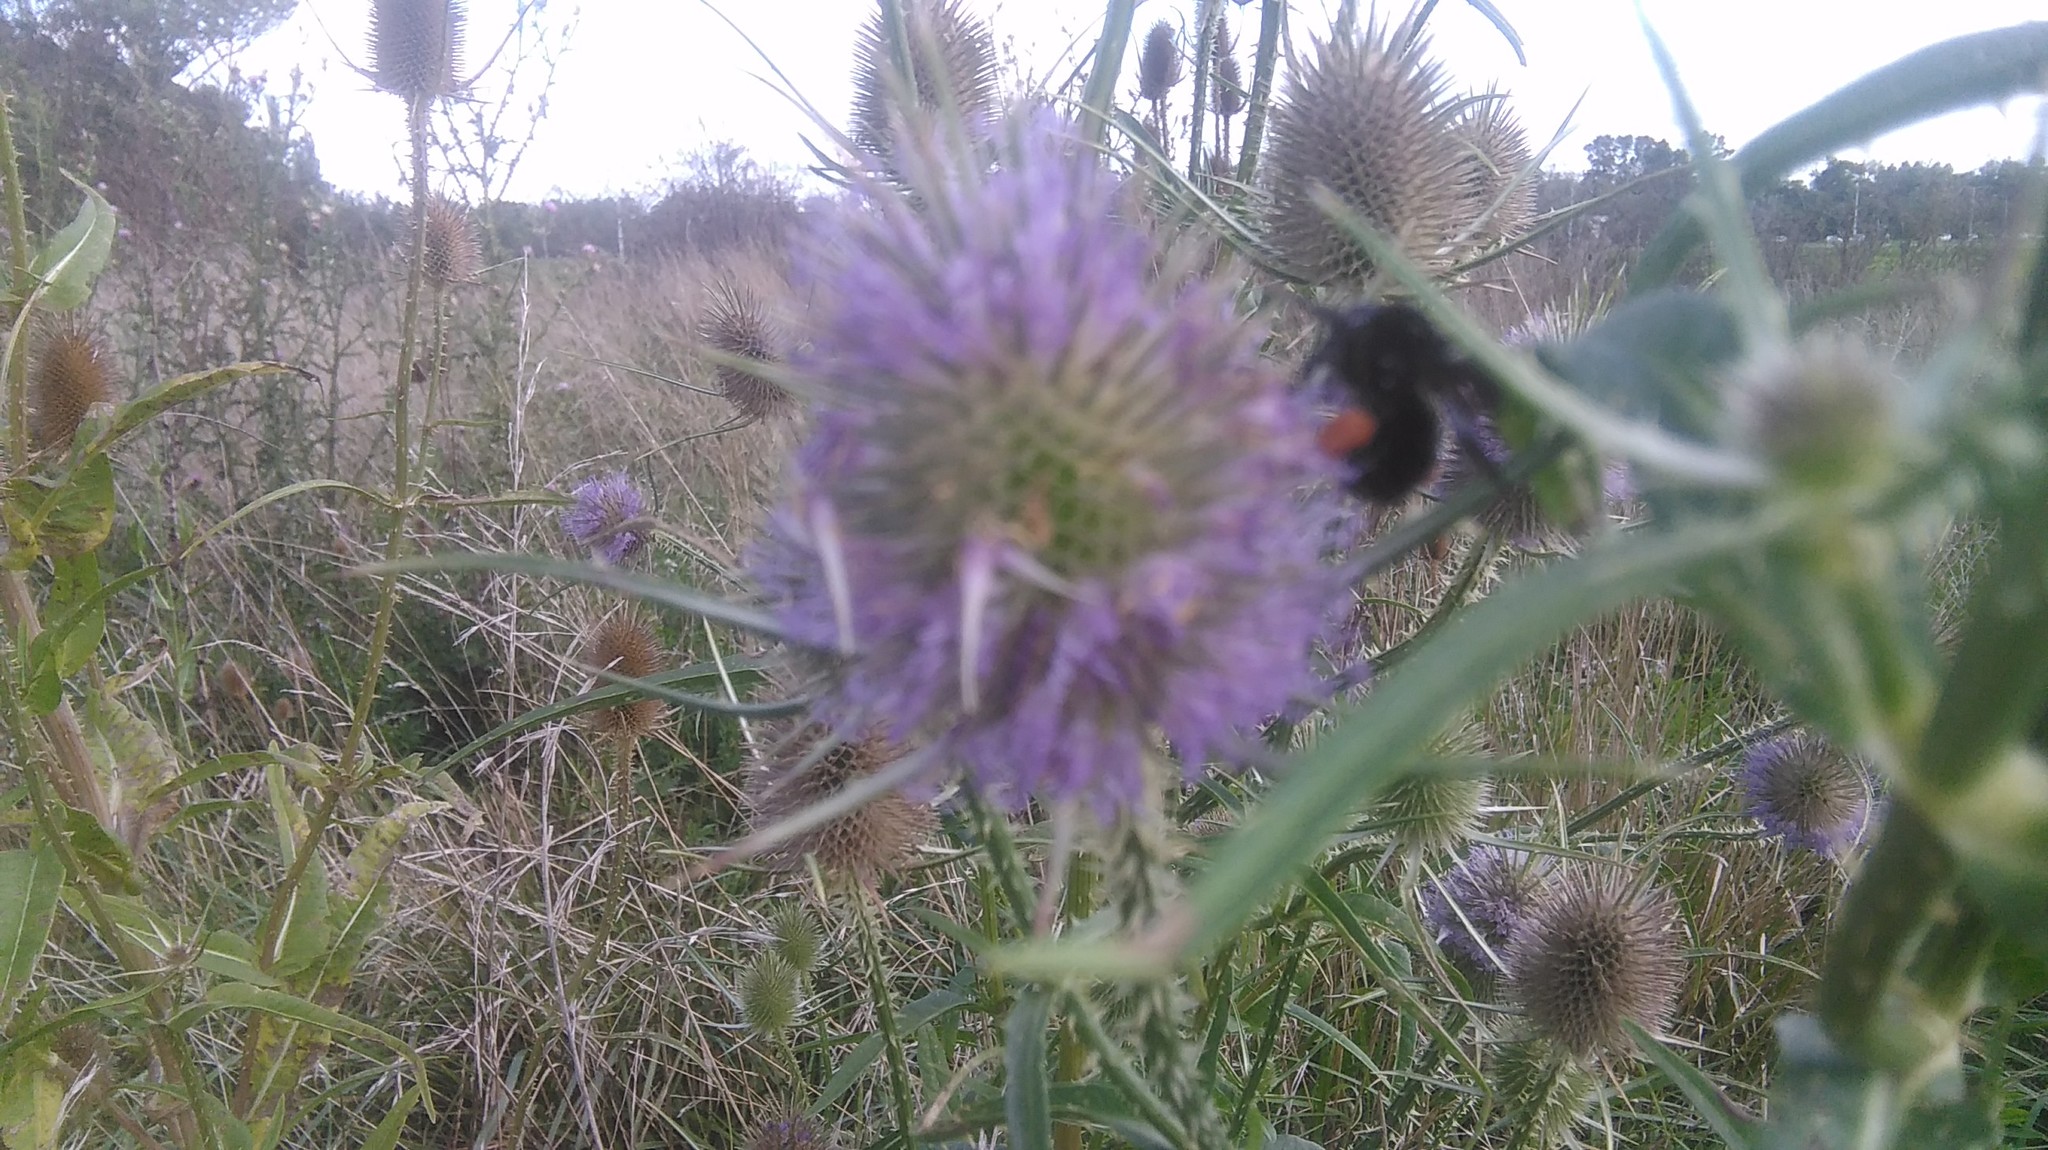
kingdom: Animalia
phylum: Arthropoda
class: Insecta
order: Hymenoptera
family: Apidae
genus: Bombus
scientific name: Bombus pauloensis
